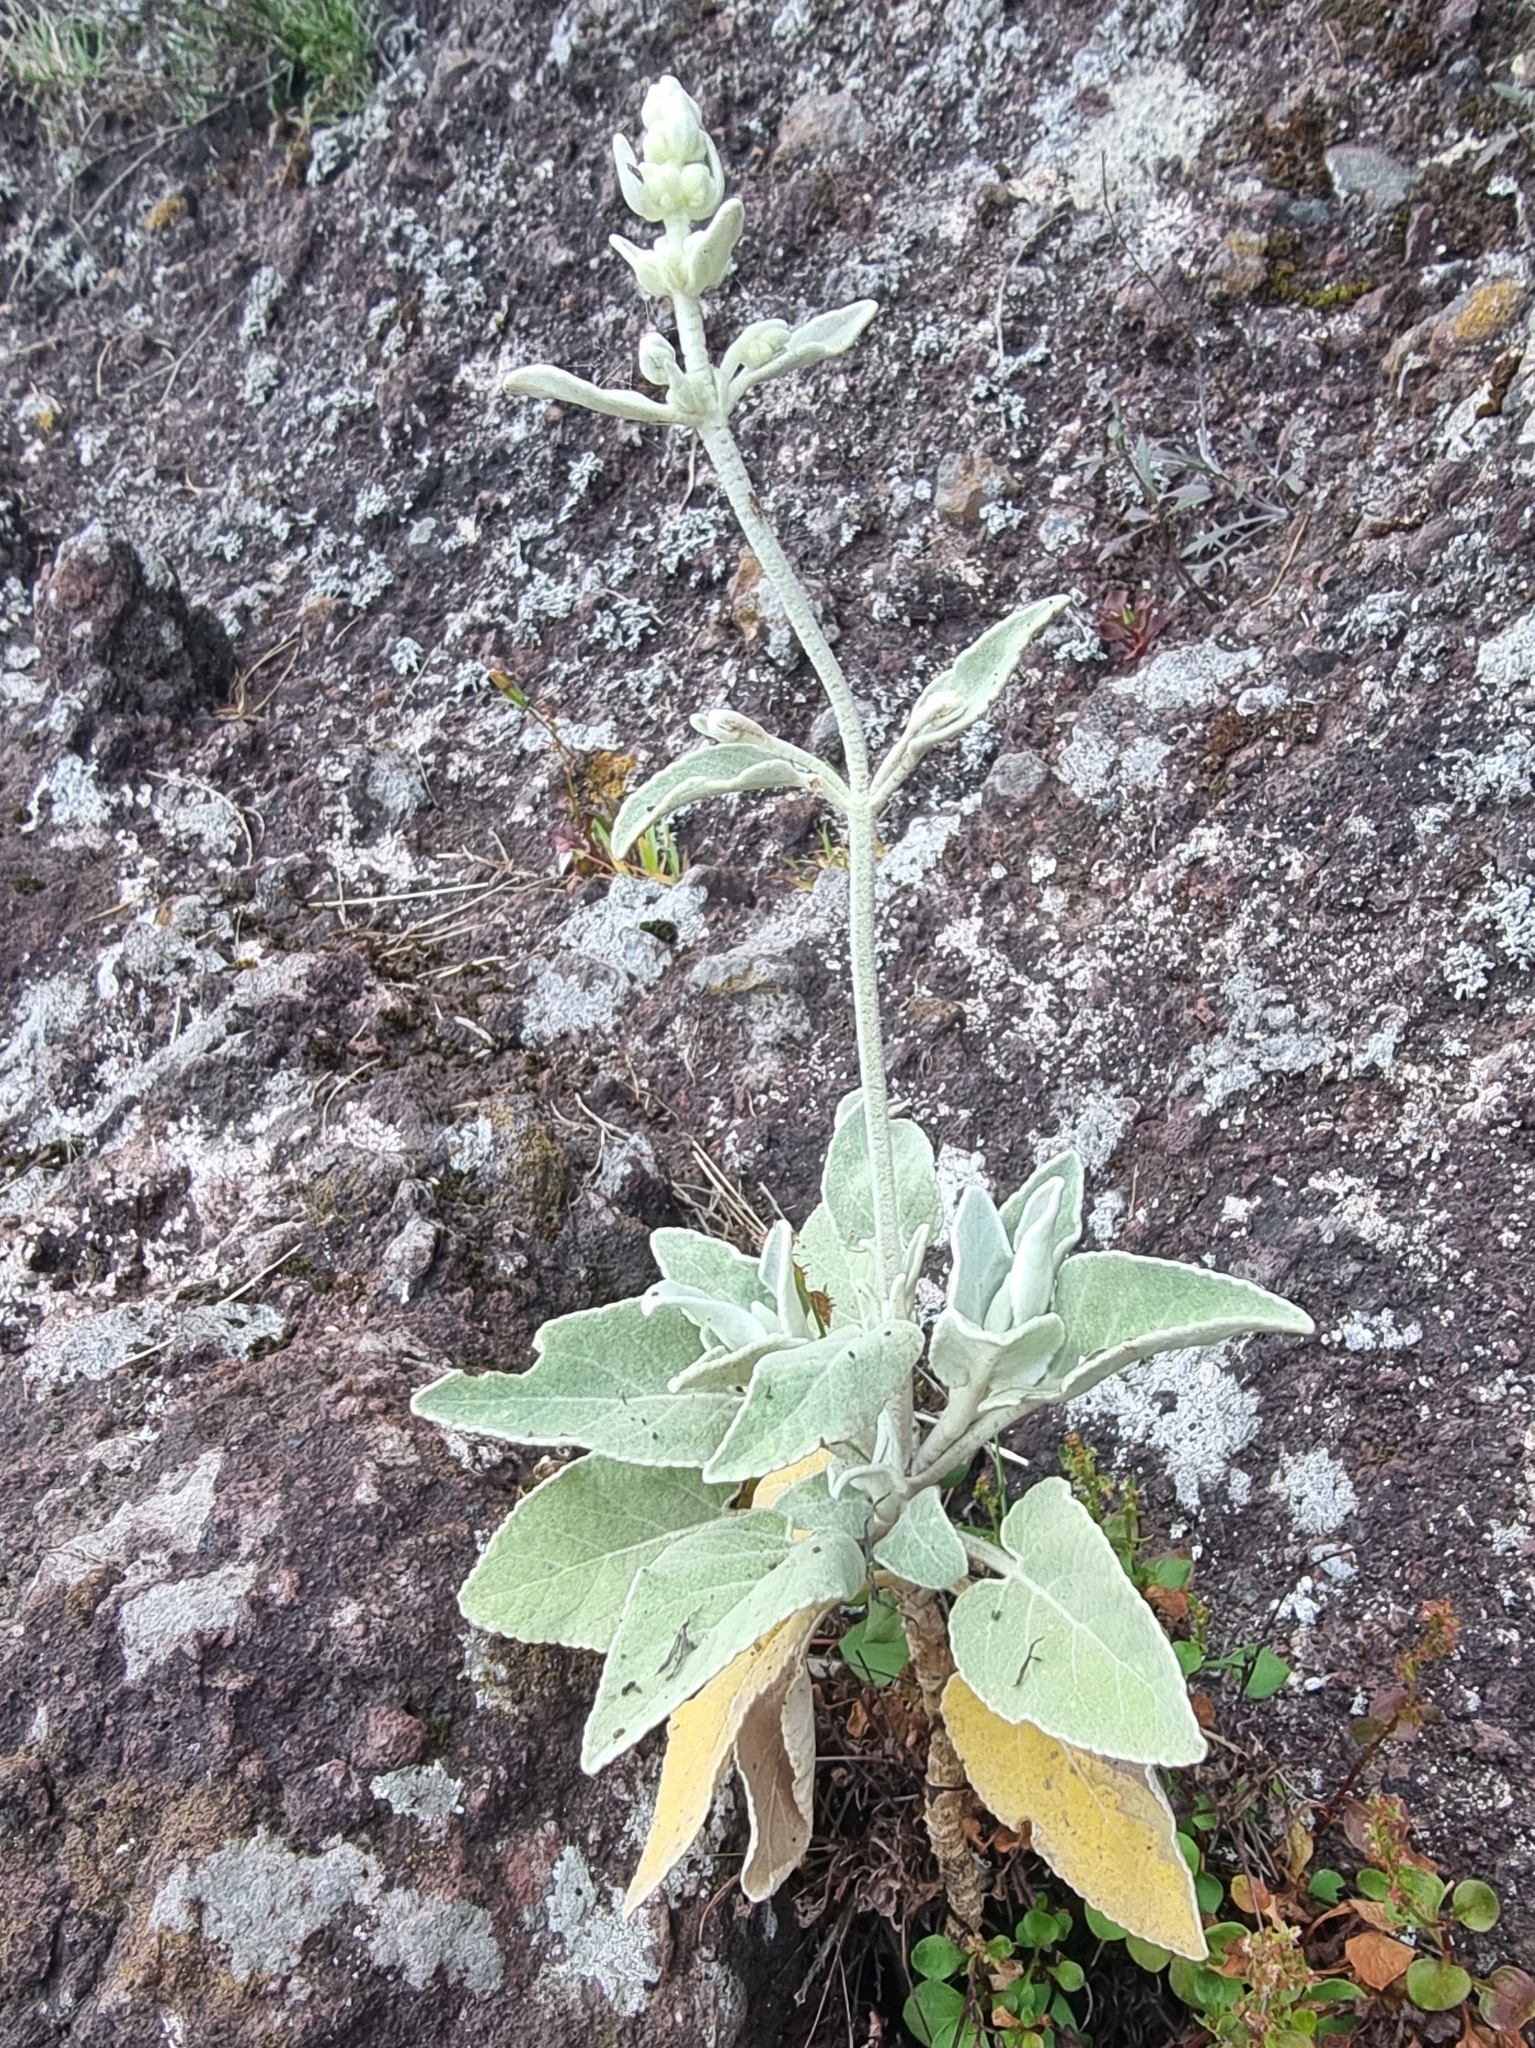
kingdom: Plantae
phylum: Tracheophyta
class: Magnoliopsida
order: Lamiales
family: Lamiaceae
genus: Sideritis
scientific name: Sideritis candicans
